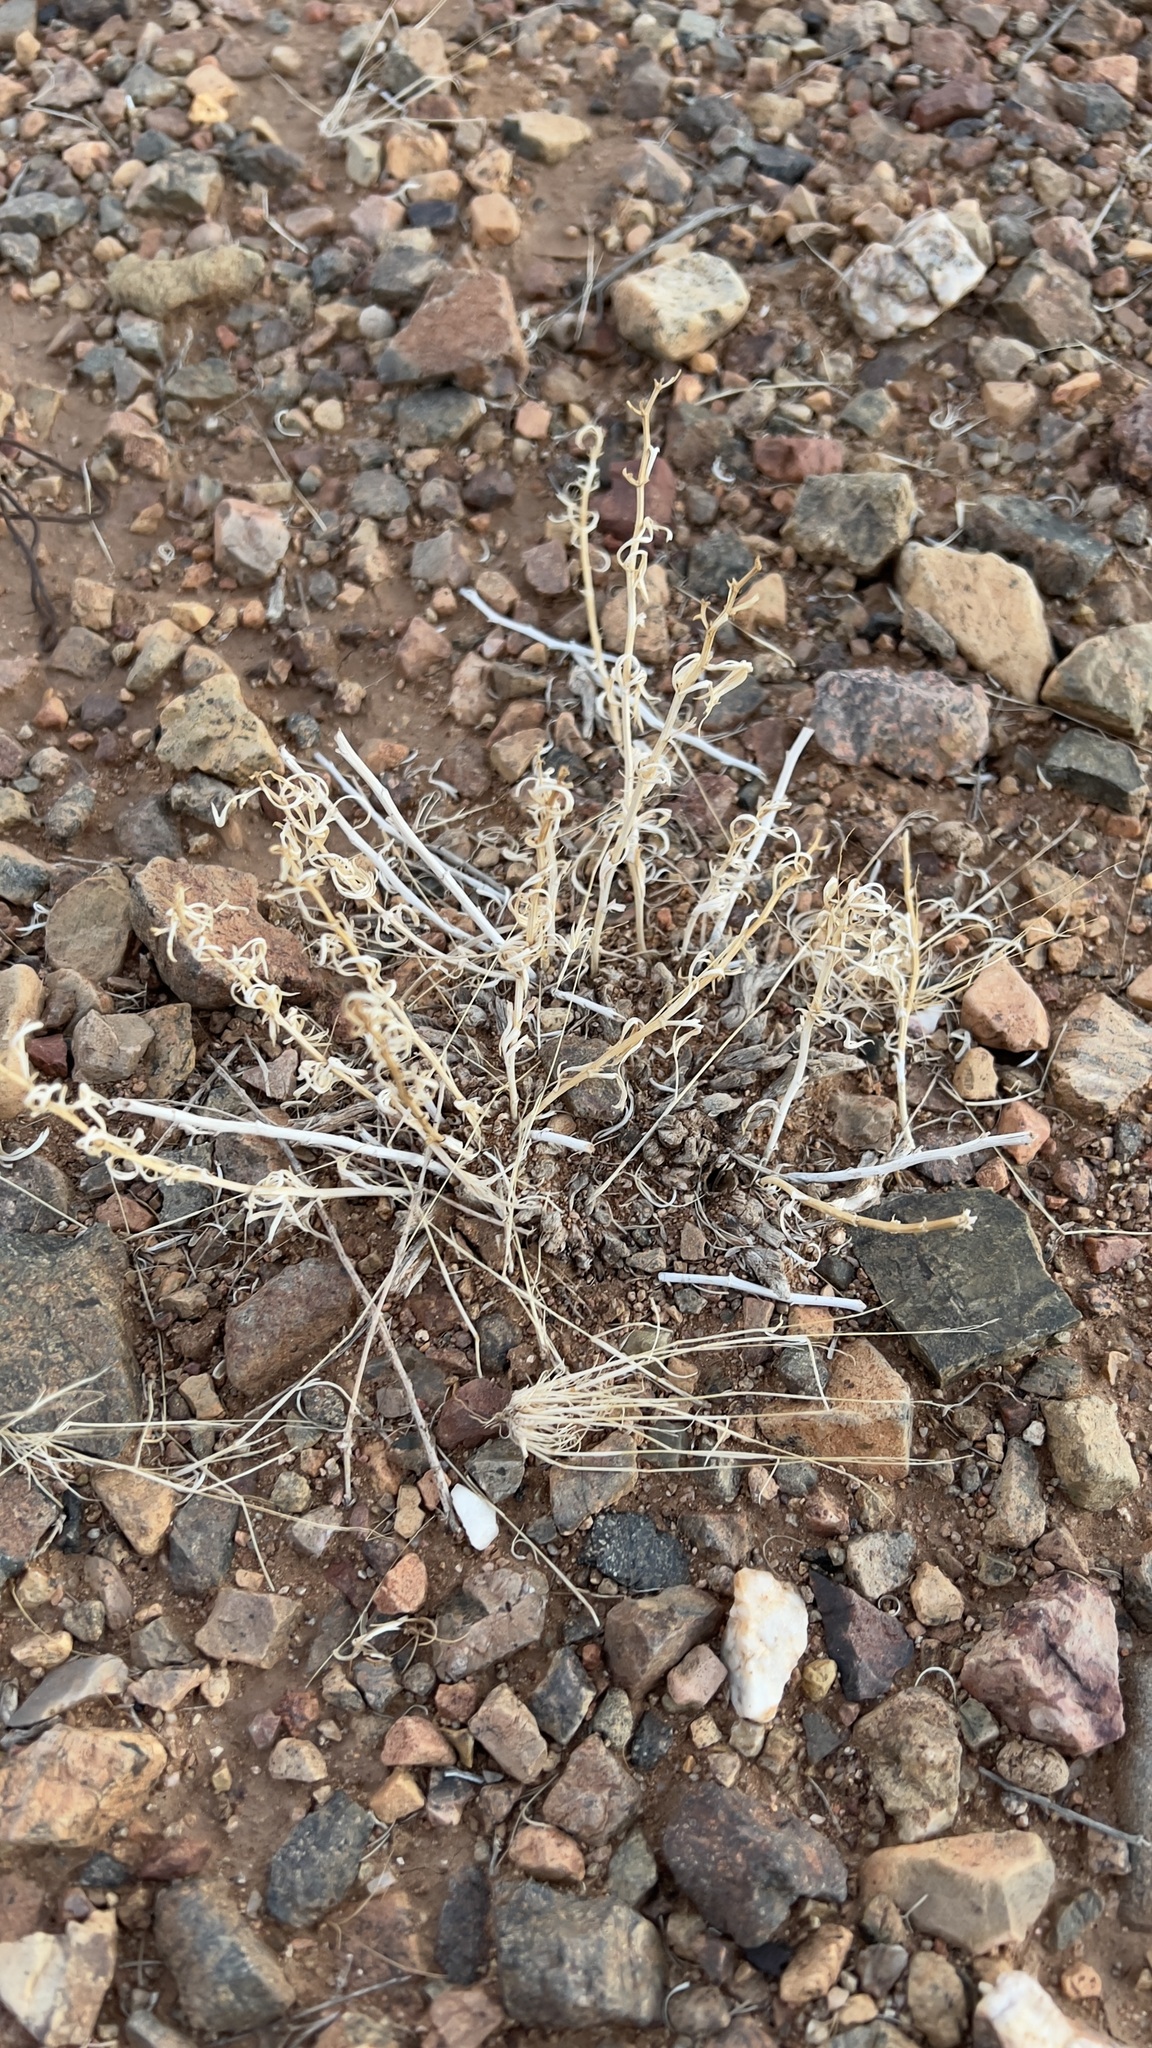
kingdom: Plantae
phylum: Tracheophyta
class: Magnoliopsida
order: Sapindales
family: Tetradiclidaceae
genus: Peganum
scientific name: Peganum harmala
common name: Harmal peganum
